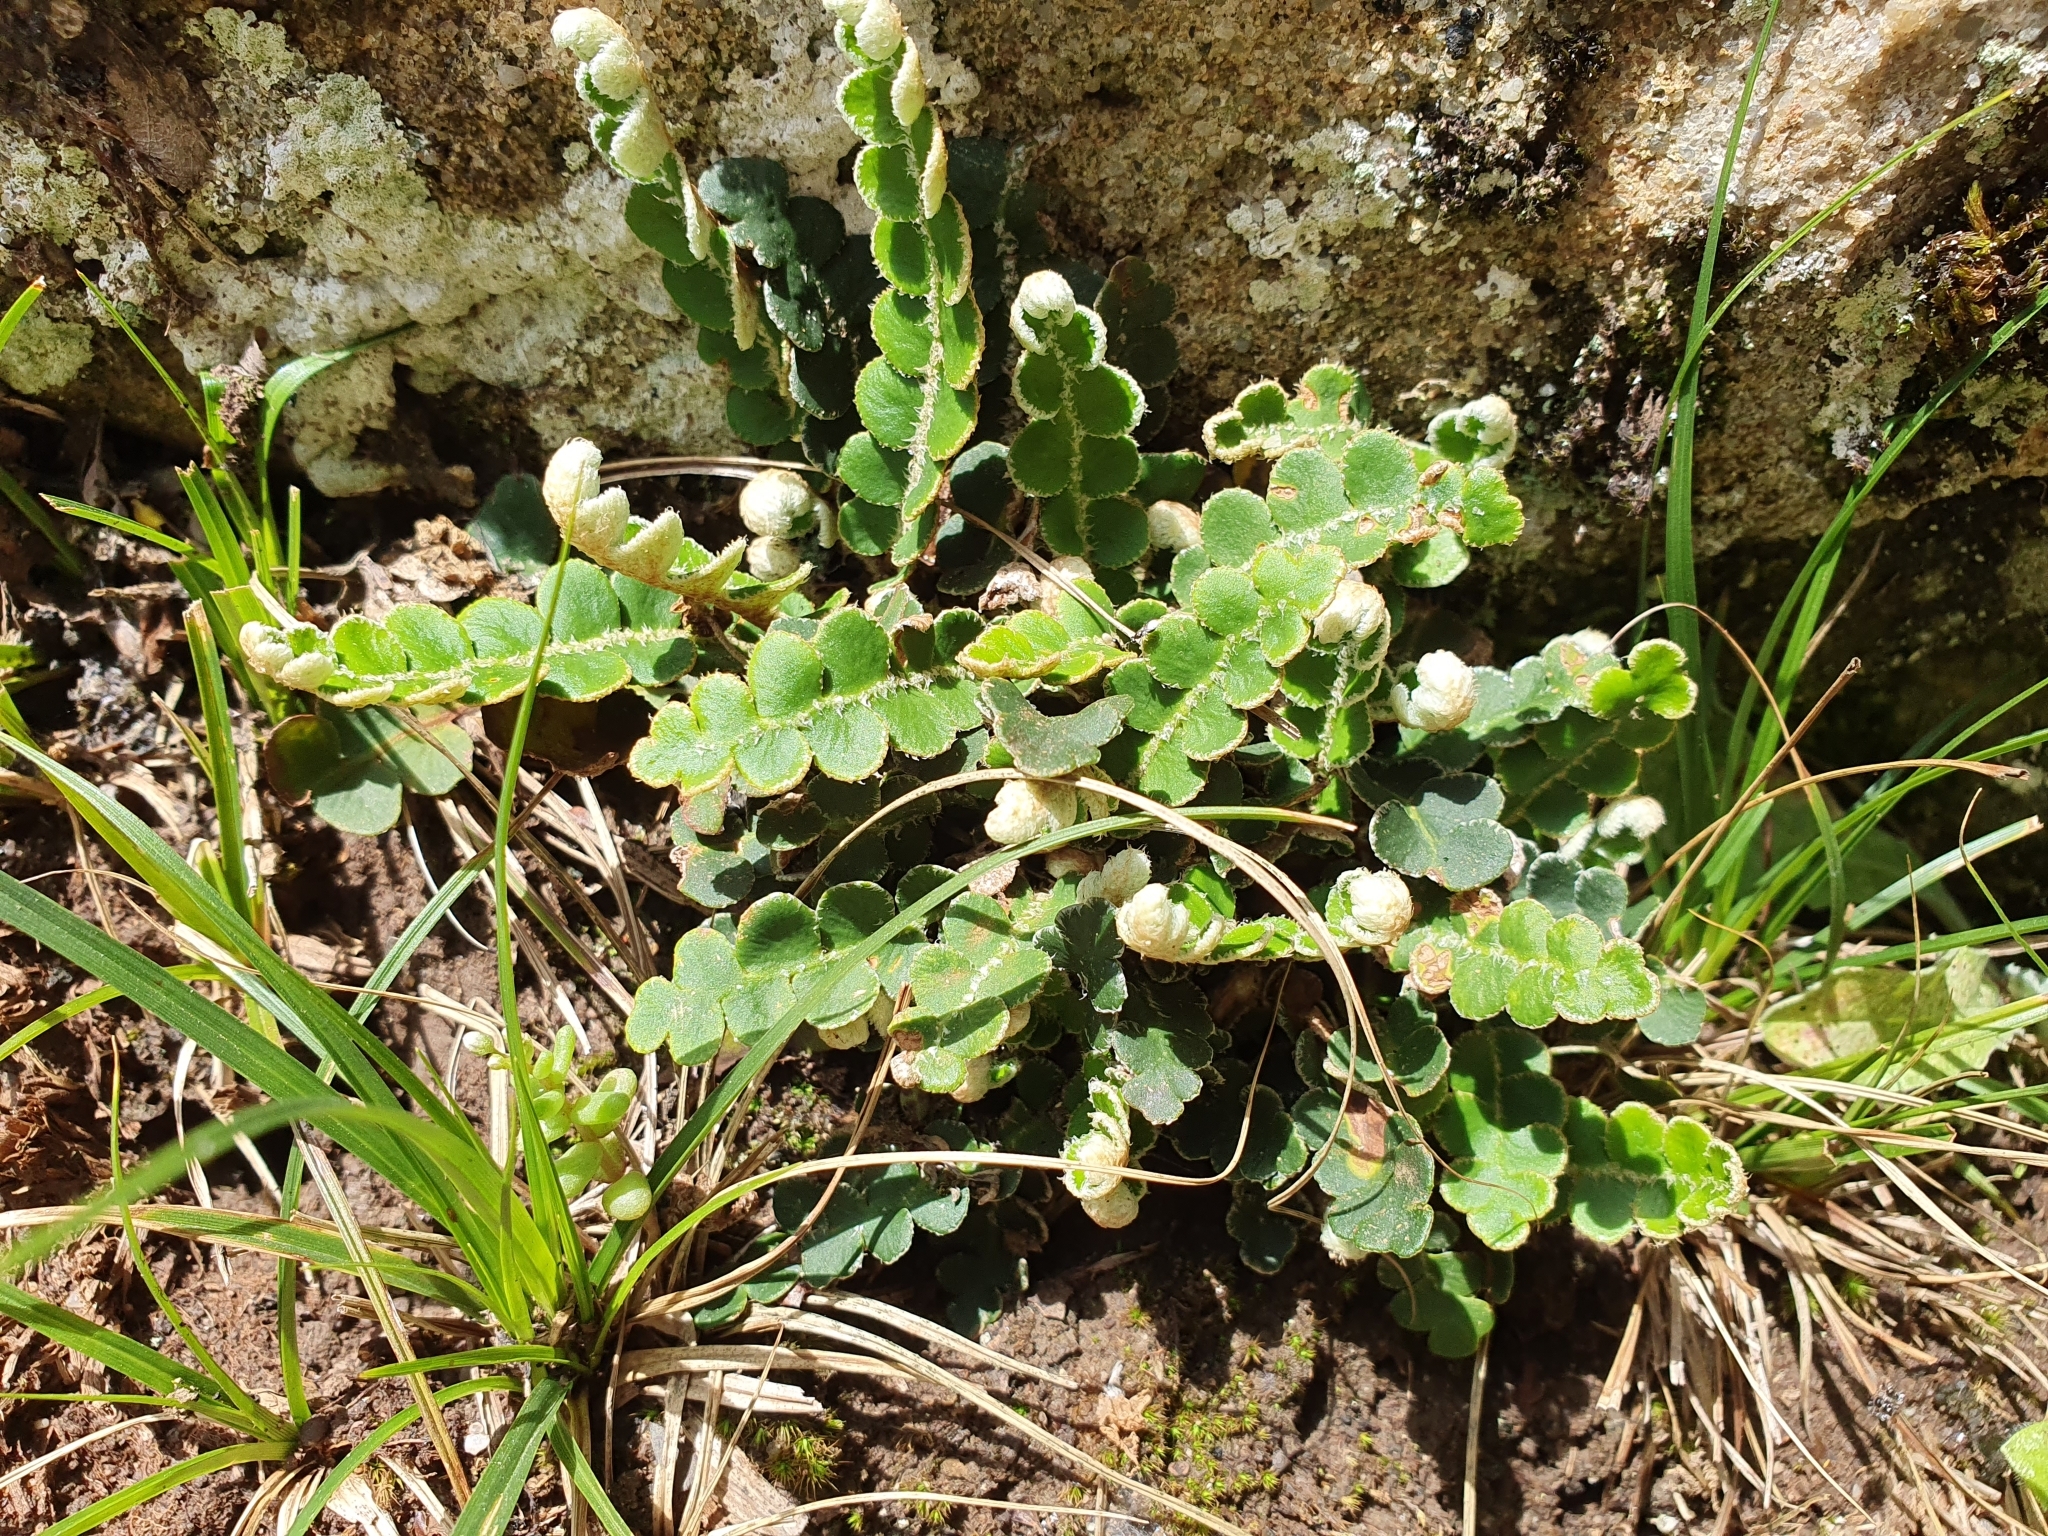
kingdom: Plantae
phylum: Tracheophyta
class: Polypodiopsida
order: Polypodiales
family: Aspleniaceae
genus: Asplenium
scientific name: Asplenium ceterach
